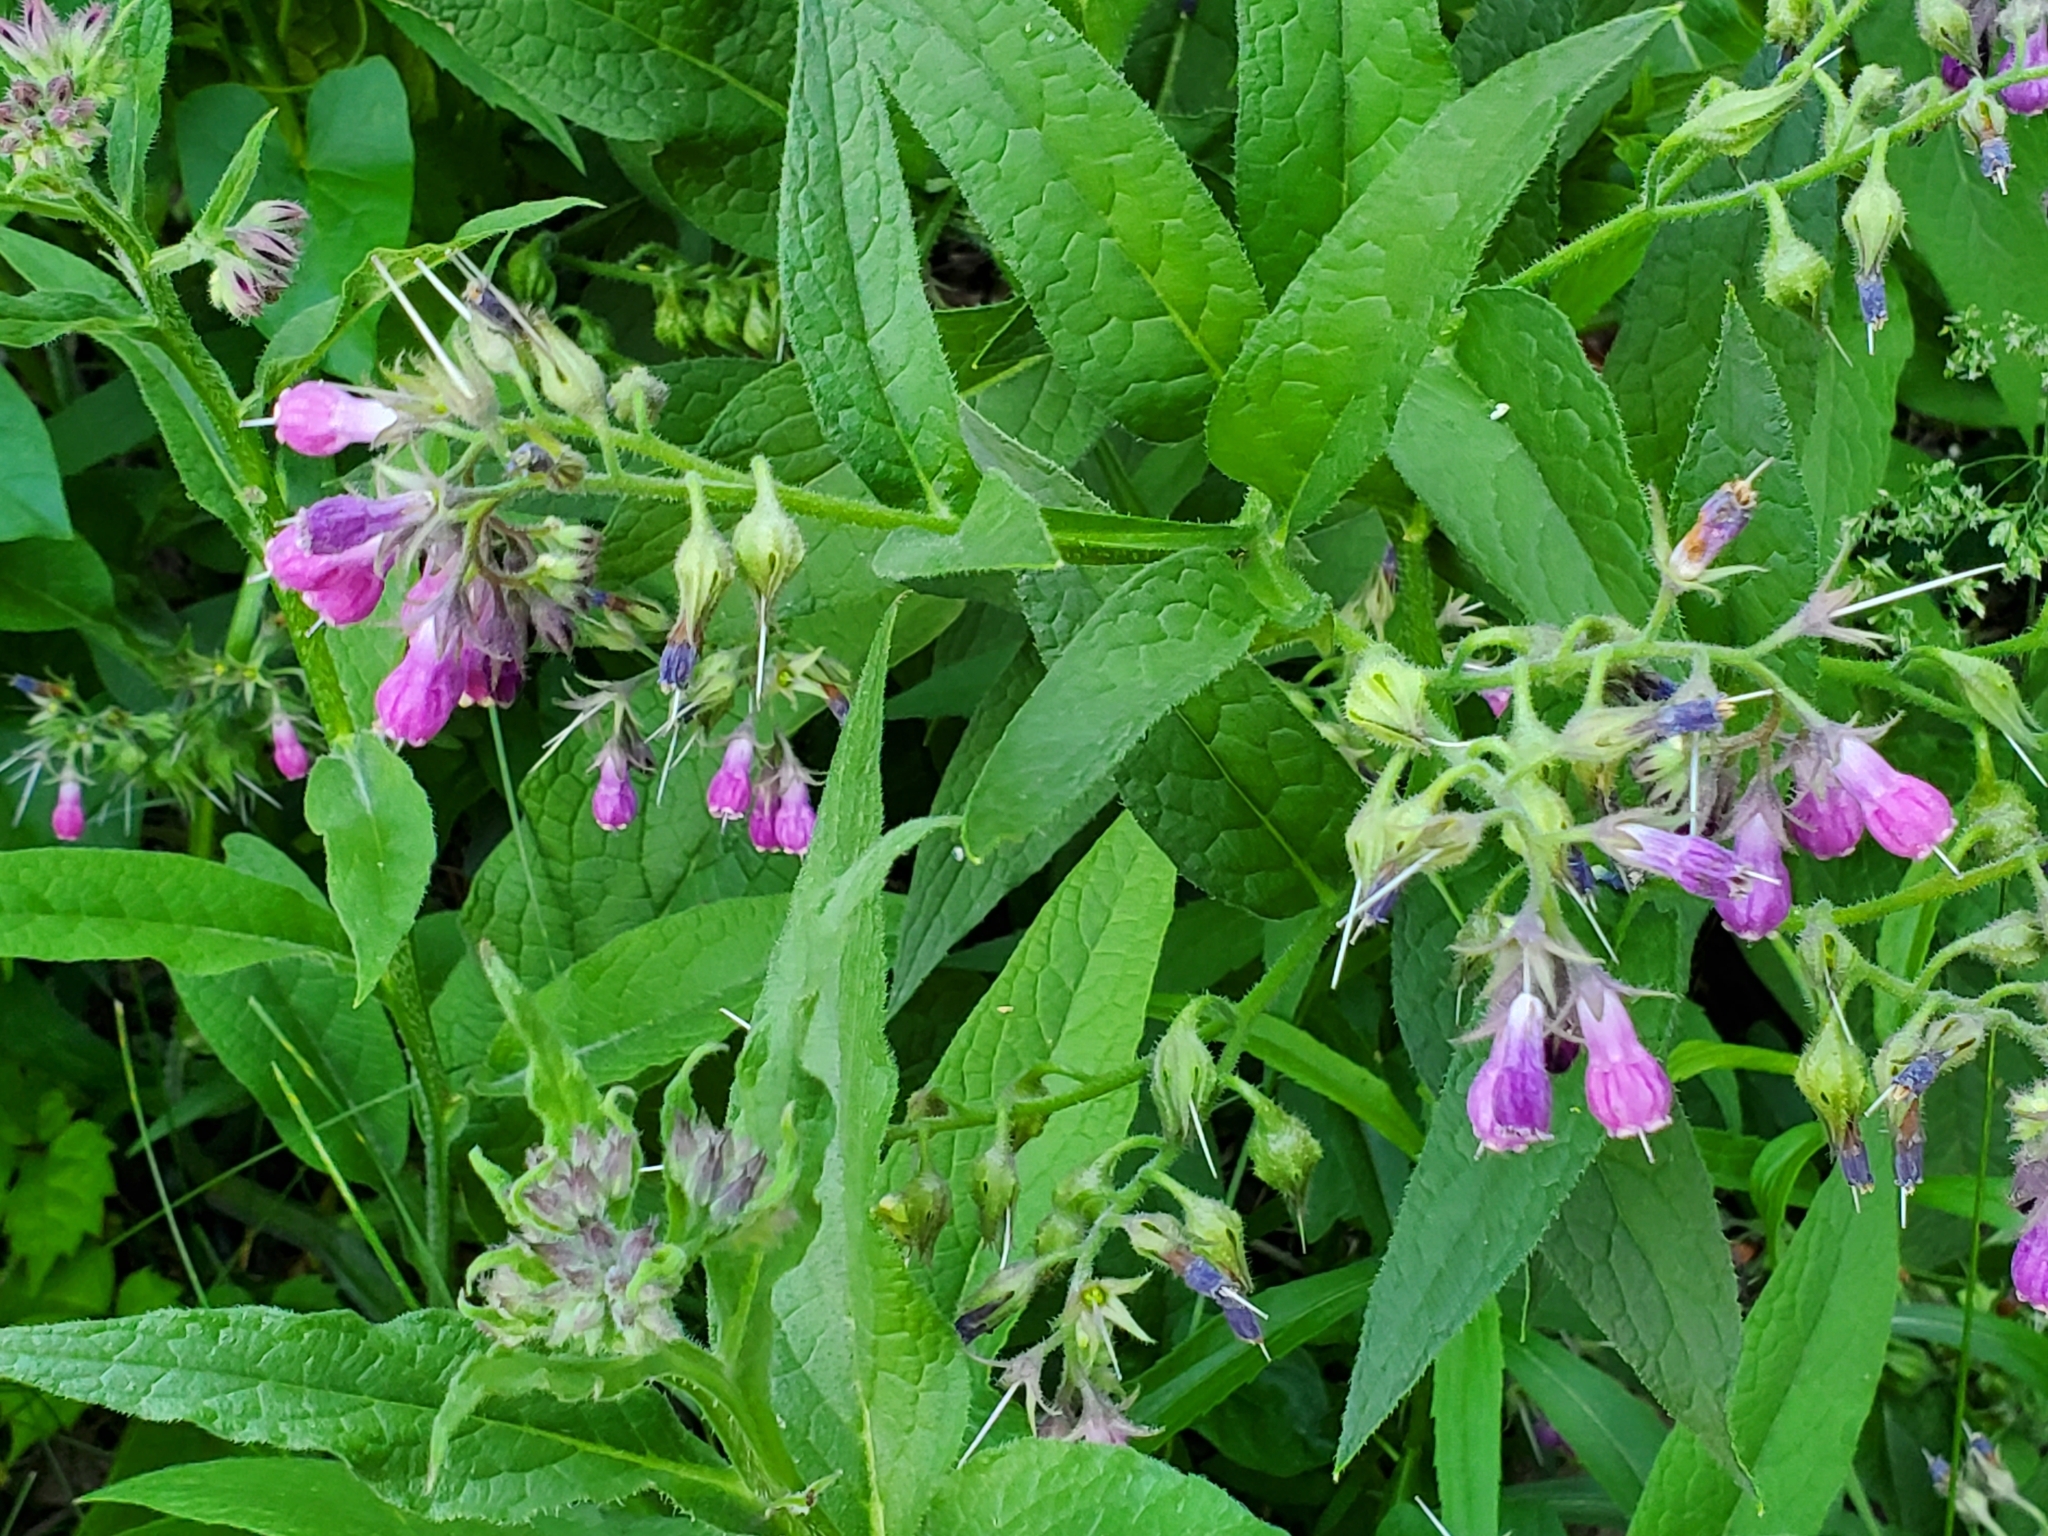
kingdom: Plantae
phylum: Tracheophyta
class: Magnoliopsida
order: Boraginales
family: Boraginaceae
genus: Symphytum
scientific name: Symphytum officinale
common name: Common comfrey
